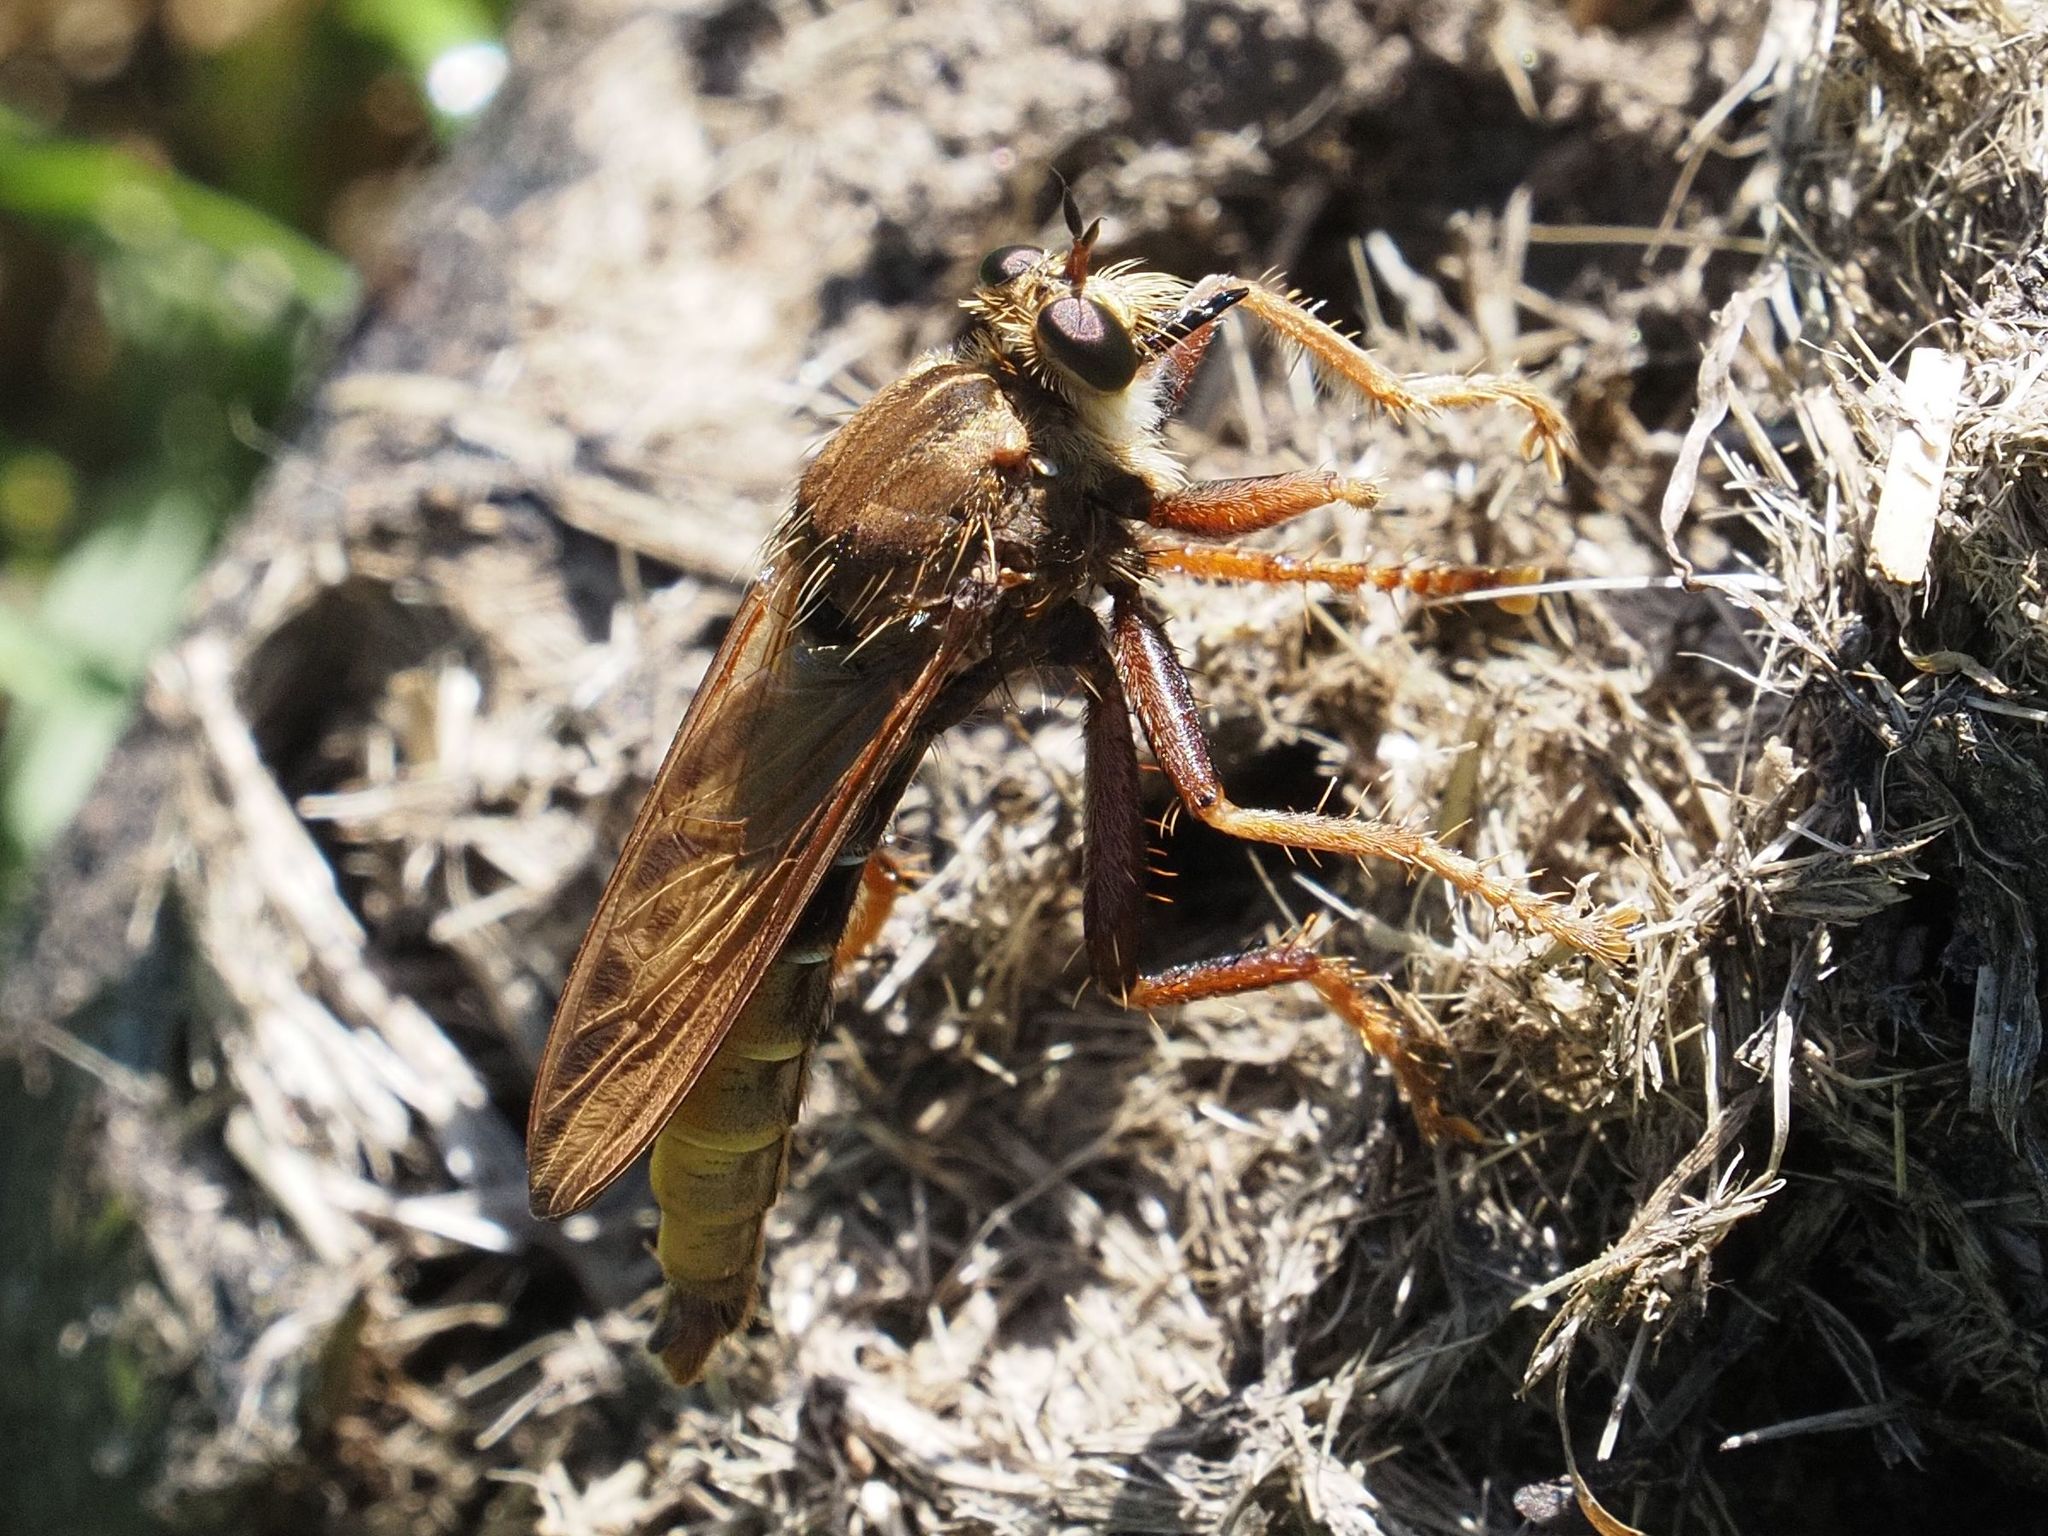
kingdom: Animalia
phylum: Arthropoda
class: Insecta
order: Diptera
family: Asilidae
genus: Asilus
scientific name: Asilus crabroniformis
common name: Hornet robberfly
